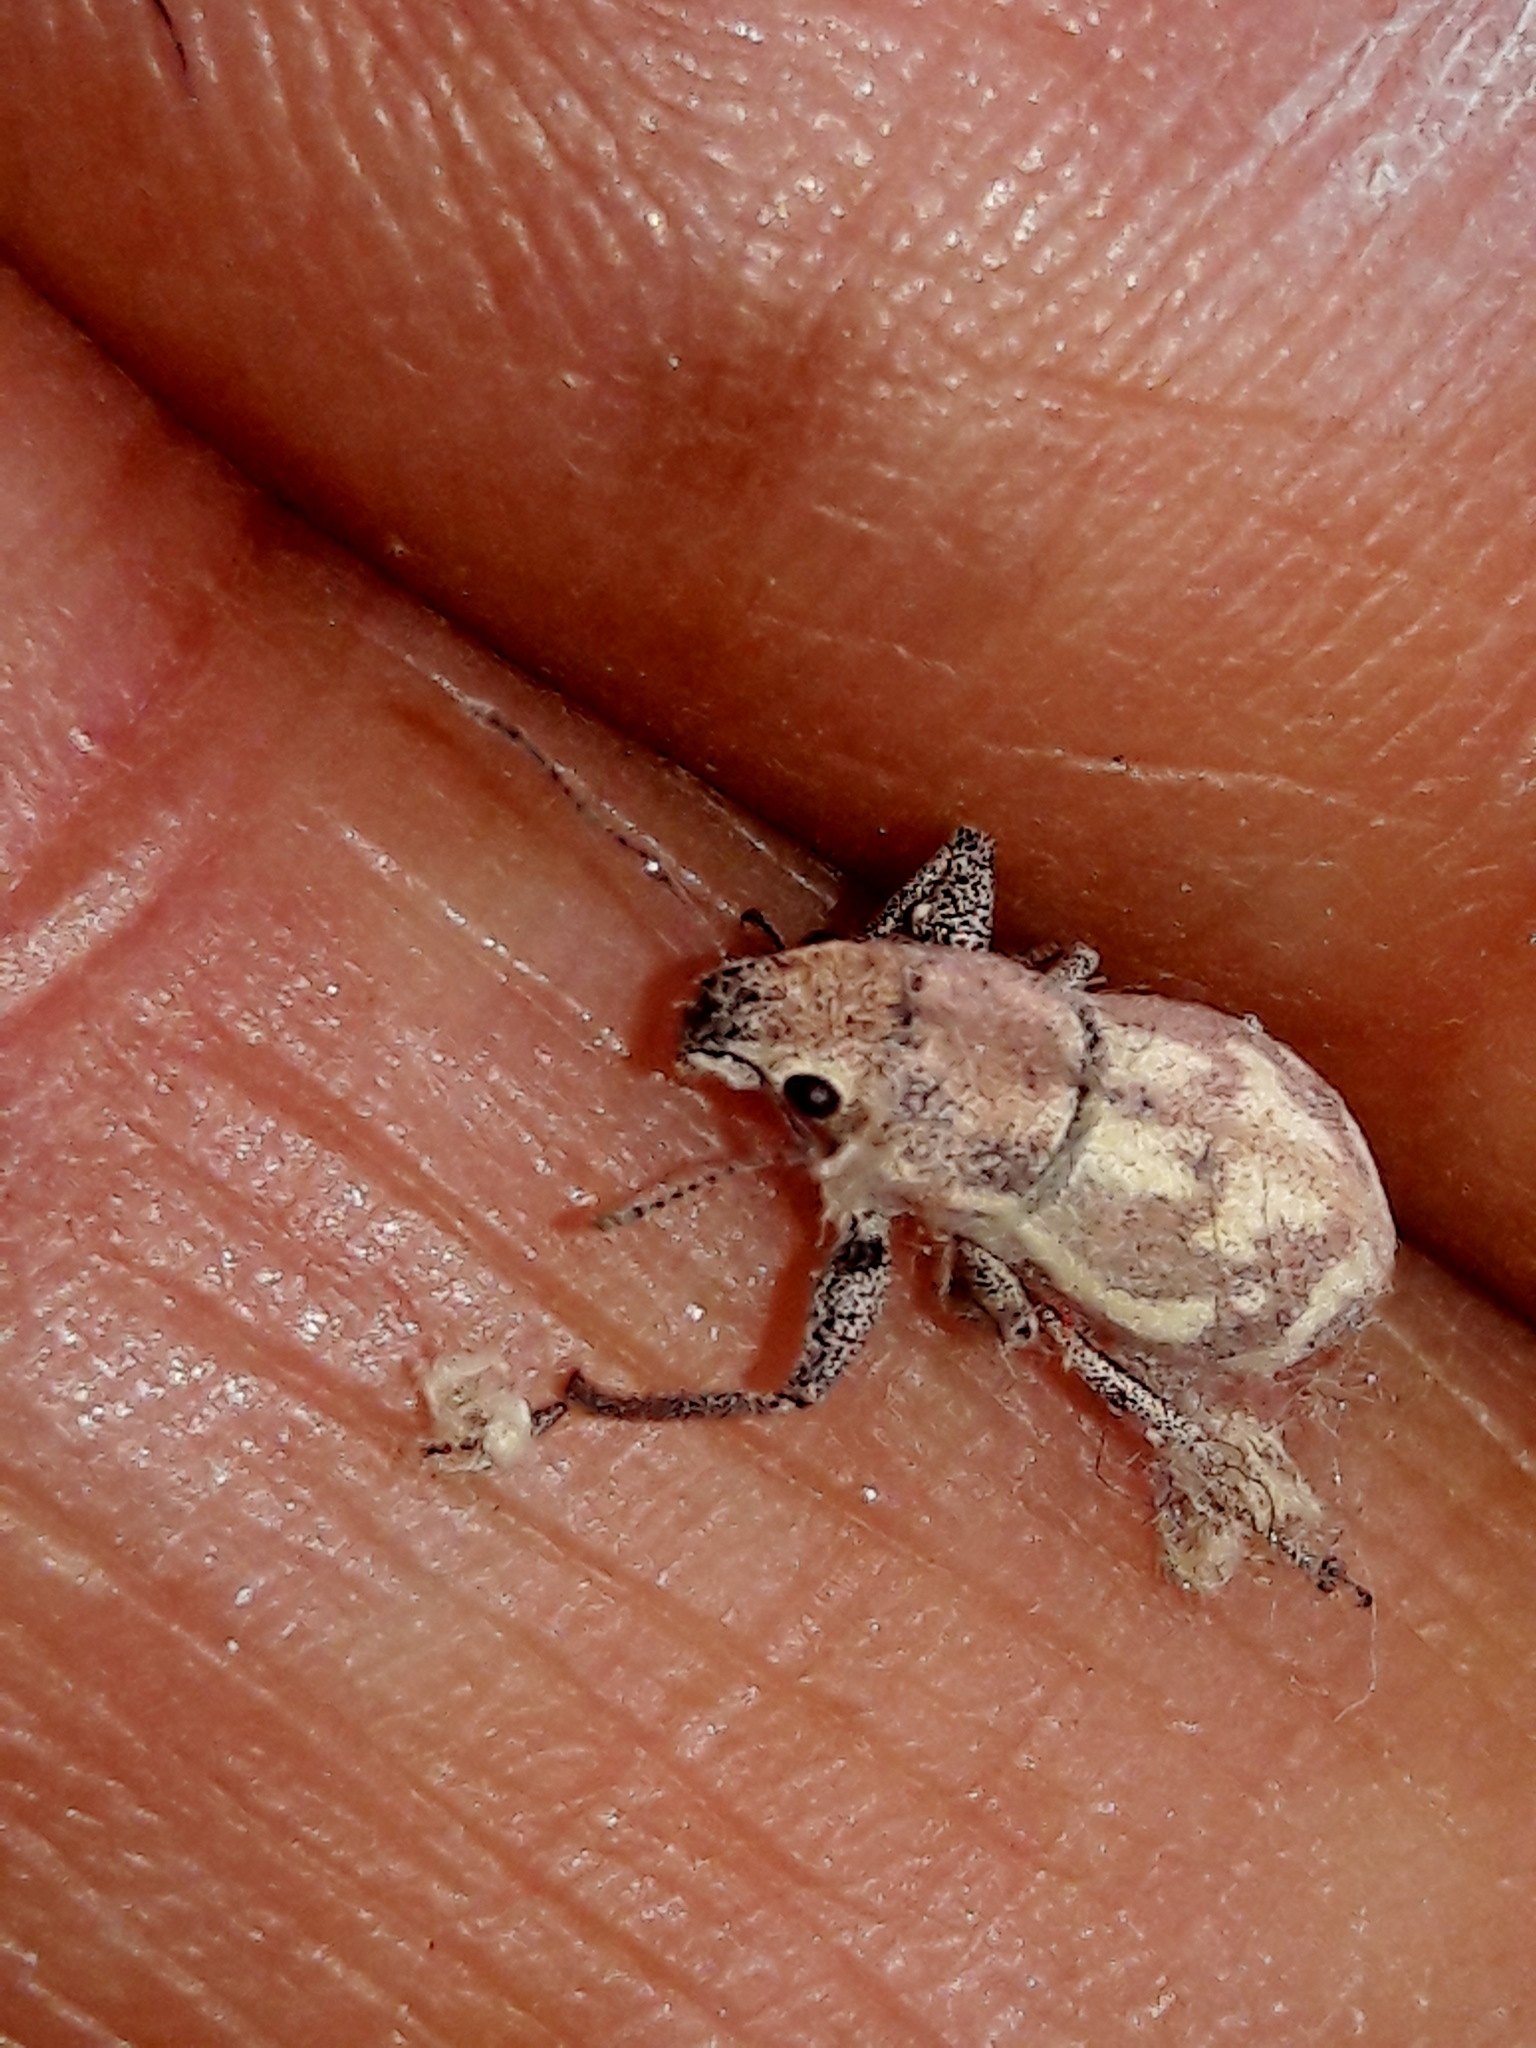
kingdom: Animalia
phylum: Arthropoda
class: Insecta
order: Coleoptera
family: Curculionidae
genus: Parapantomorus
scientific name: Parapantomorus fluctuosus
